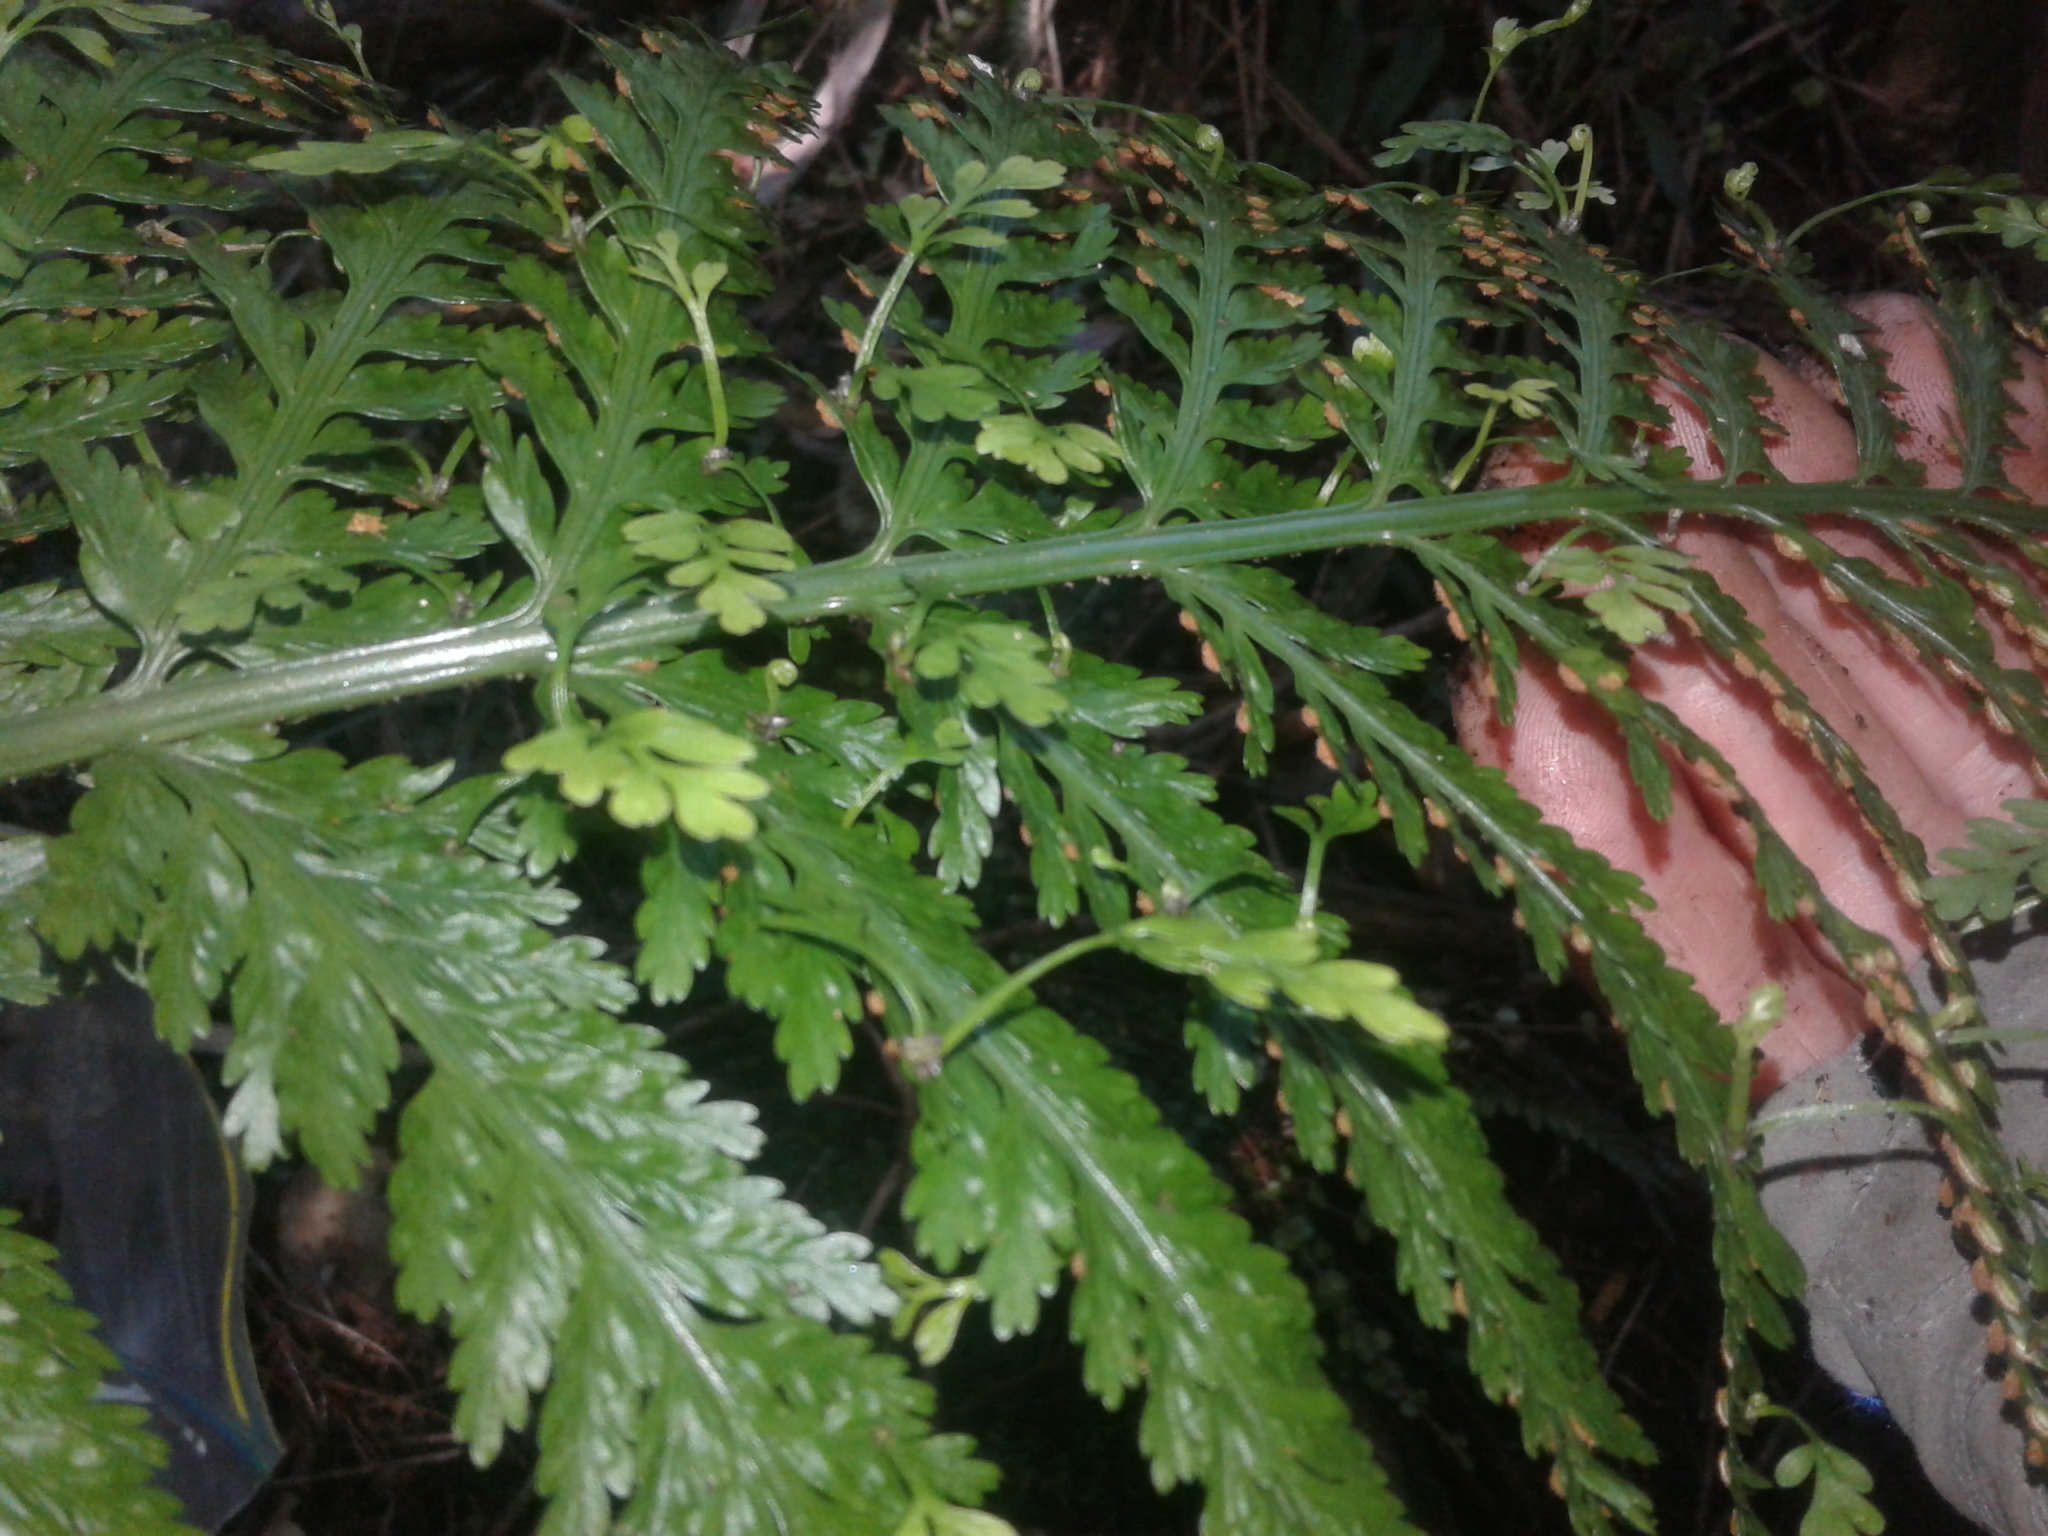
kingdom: Plantae
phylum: Tracheophyta
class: Polypodiopsida
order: Polypodiales
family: Aspleniaceae
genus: Asplenium
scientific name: Asplenium bulbiferum
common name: Mother fern
